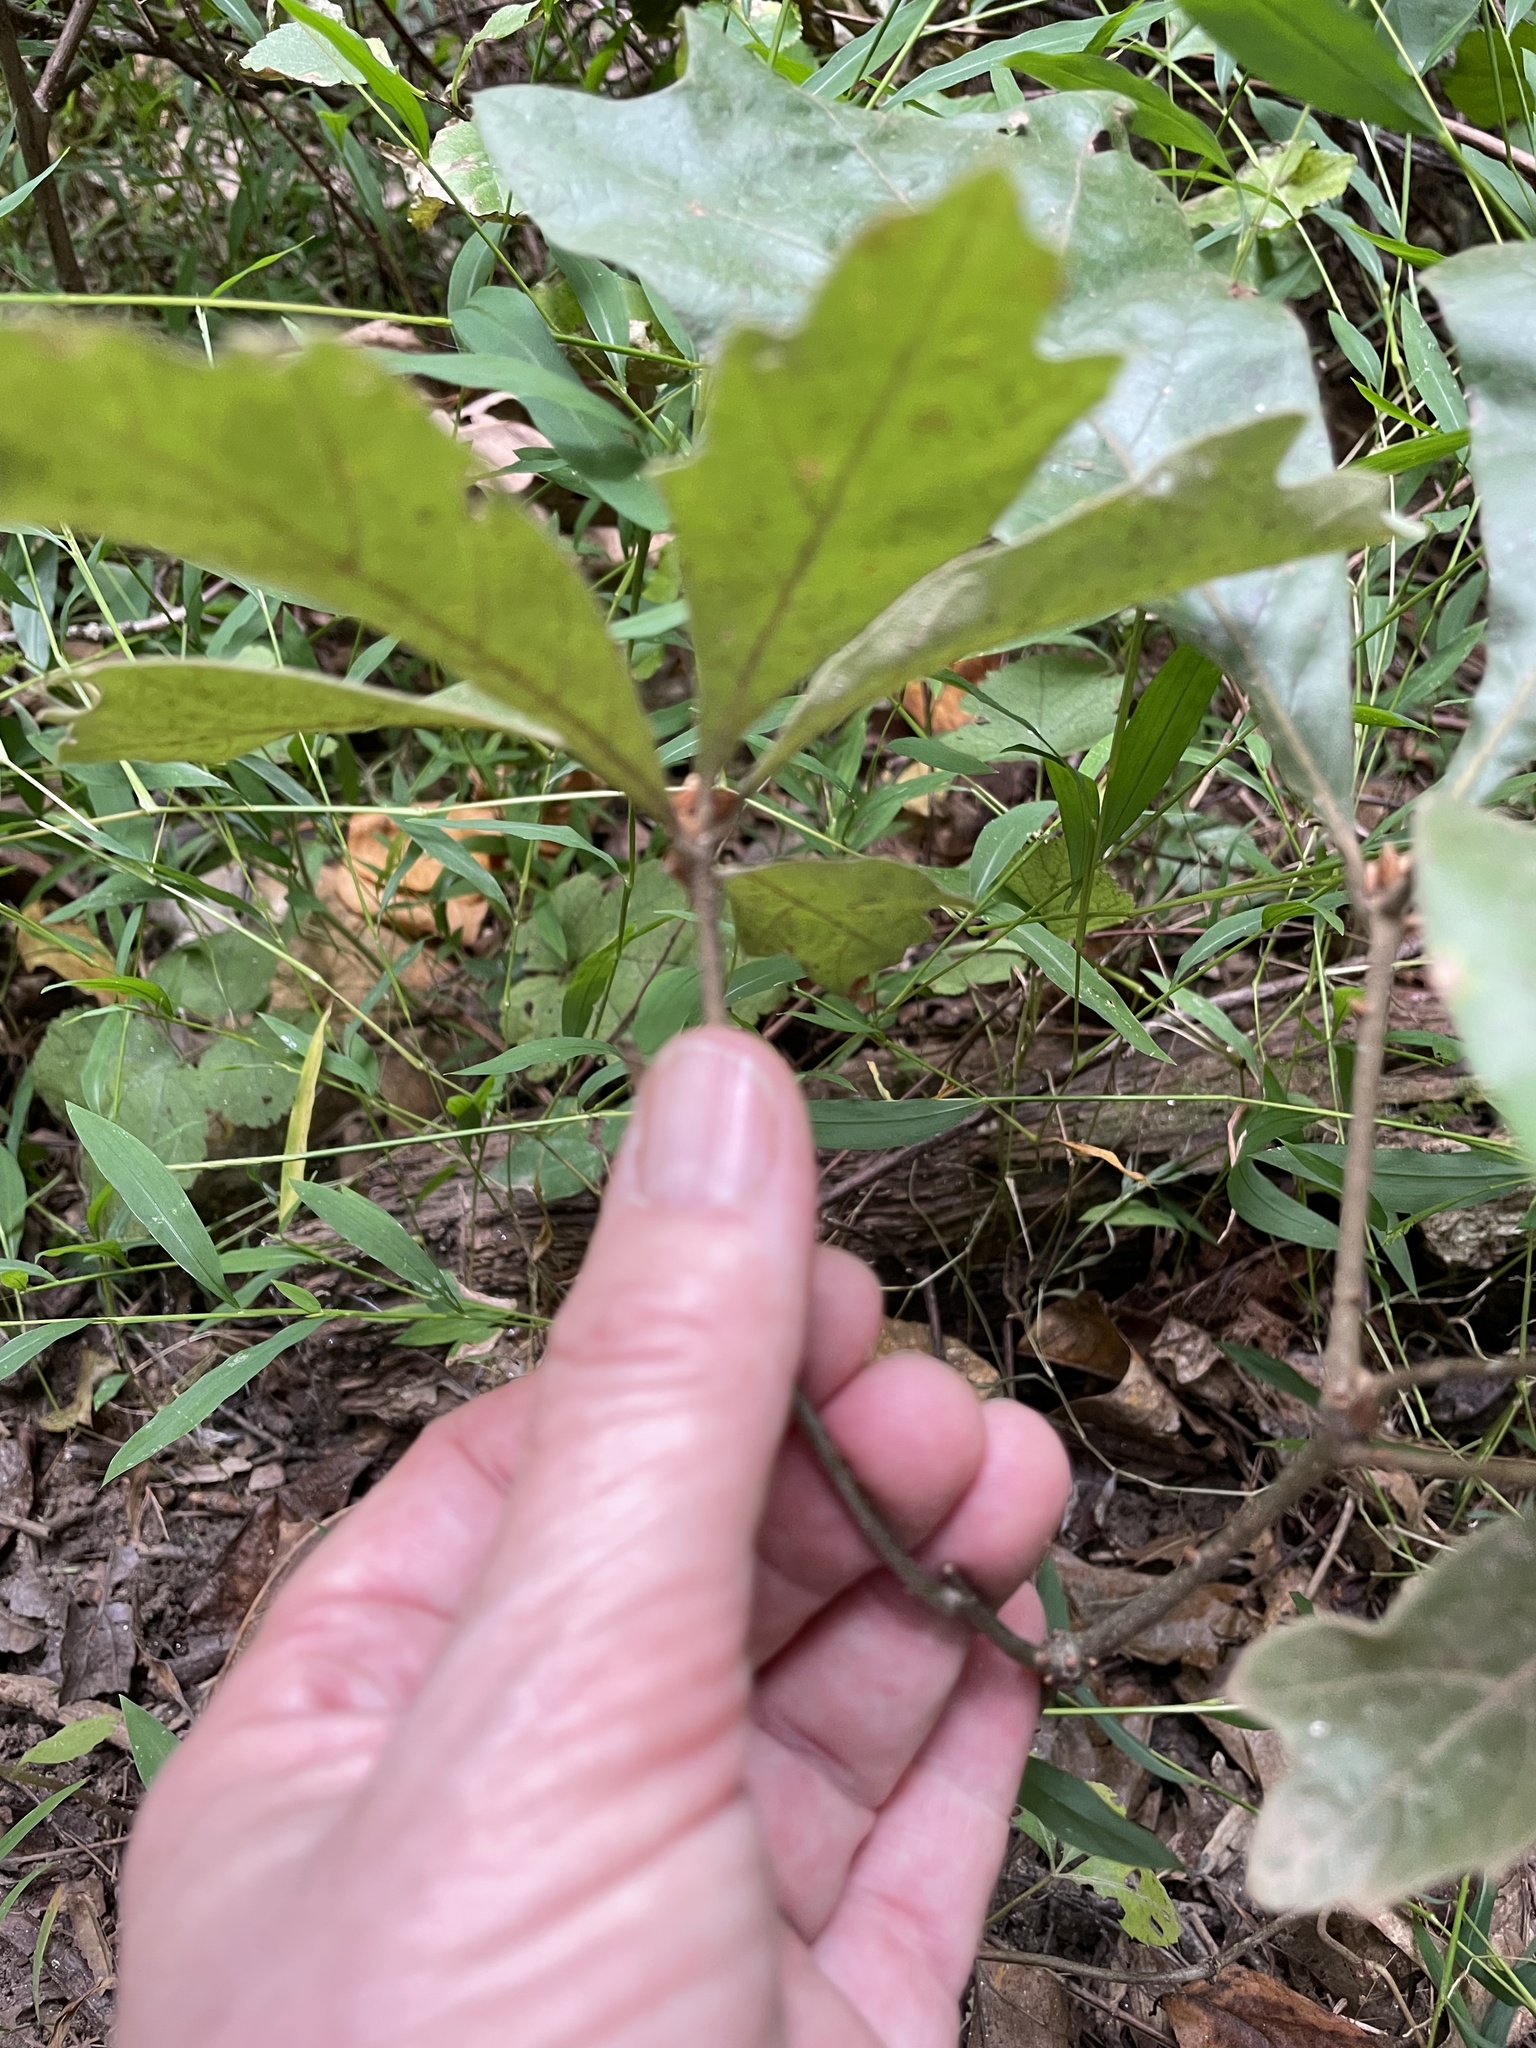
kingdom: Plantae
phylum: Tracheophyta
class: Magnoliopsida
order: Fagales
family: Fagaceae
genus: Quercus
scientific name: Quercus falcata
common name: Southern red oak
